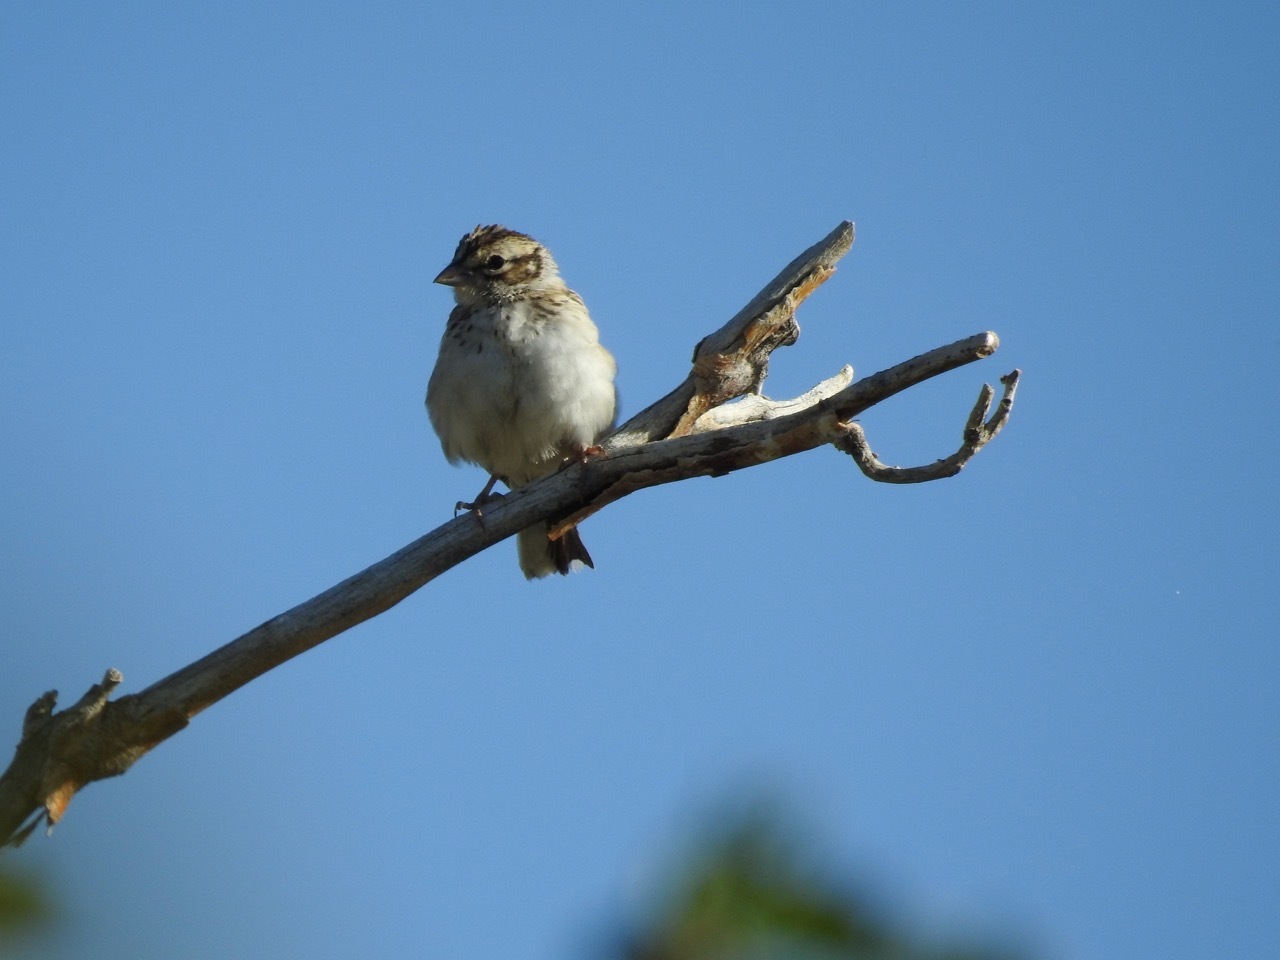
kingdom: Animalia
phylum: Chordata
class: Aves
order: Passeriformes
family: Passerellidae
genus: Chondestes
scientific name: Chondestes grammacus
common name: Lark sparrow
